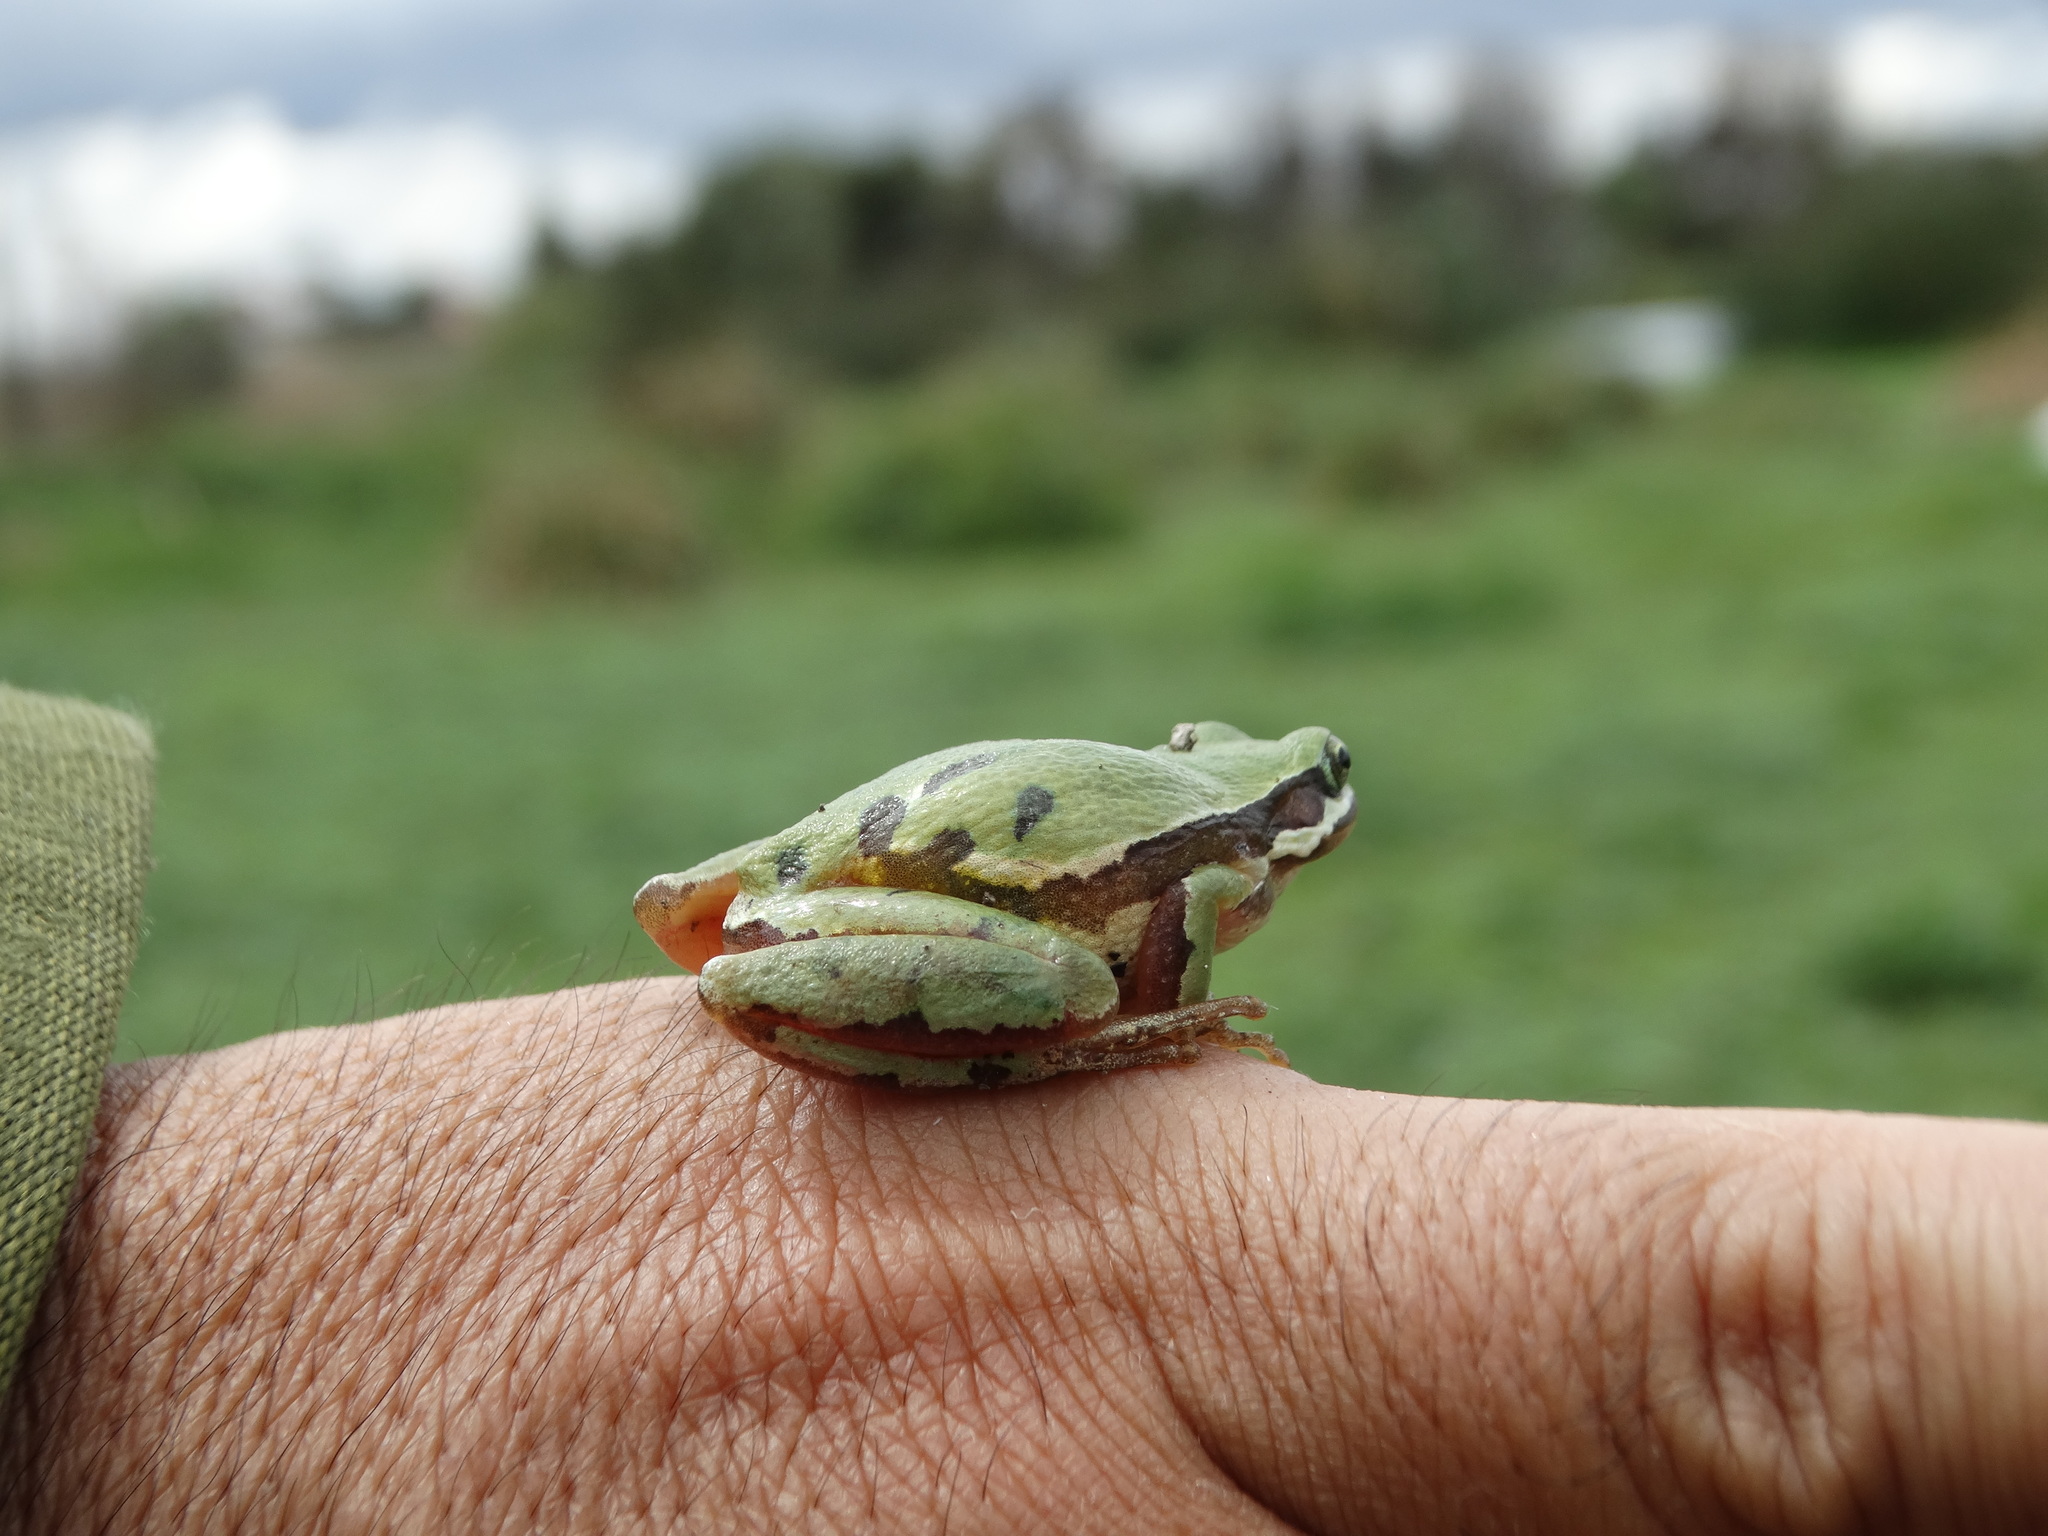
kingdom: Animalia
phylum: Chordata
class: Amphibia
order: Anura
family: Hylidae
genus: Dryophytes
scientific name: Dryophytes eximius
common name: Mountain treefrog
